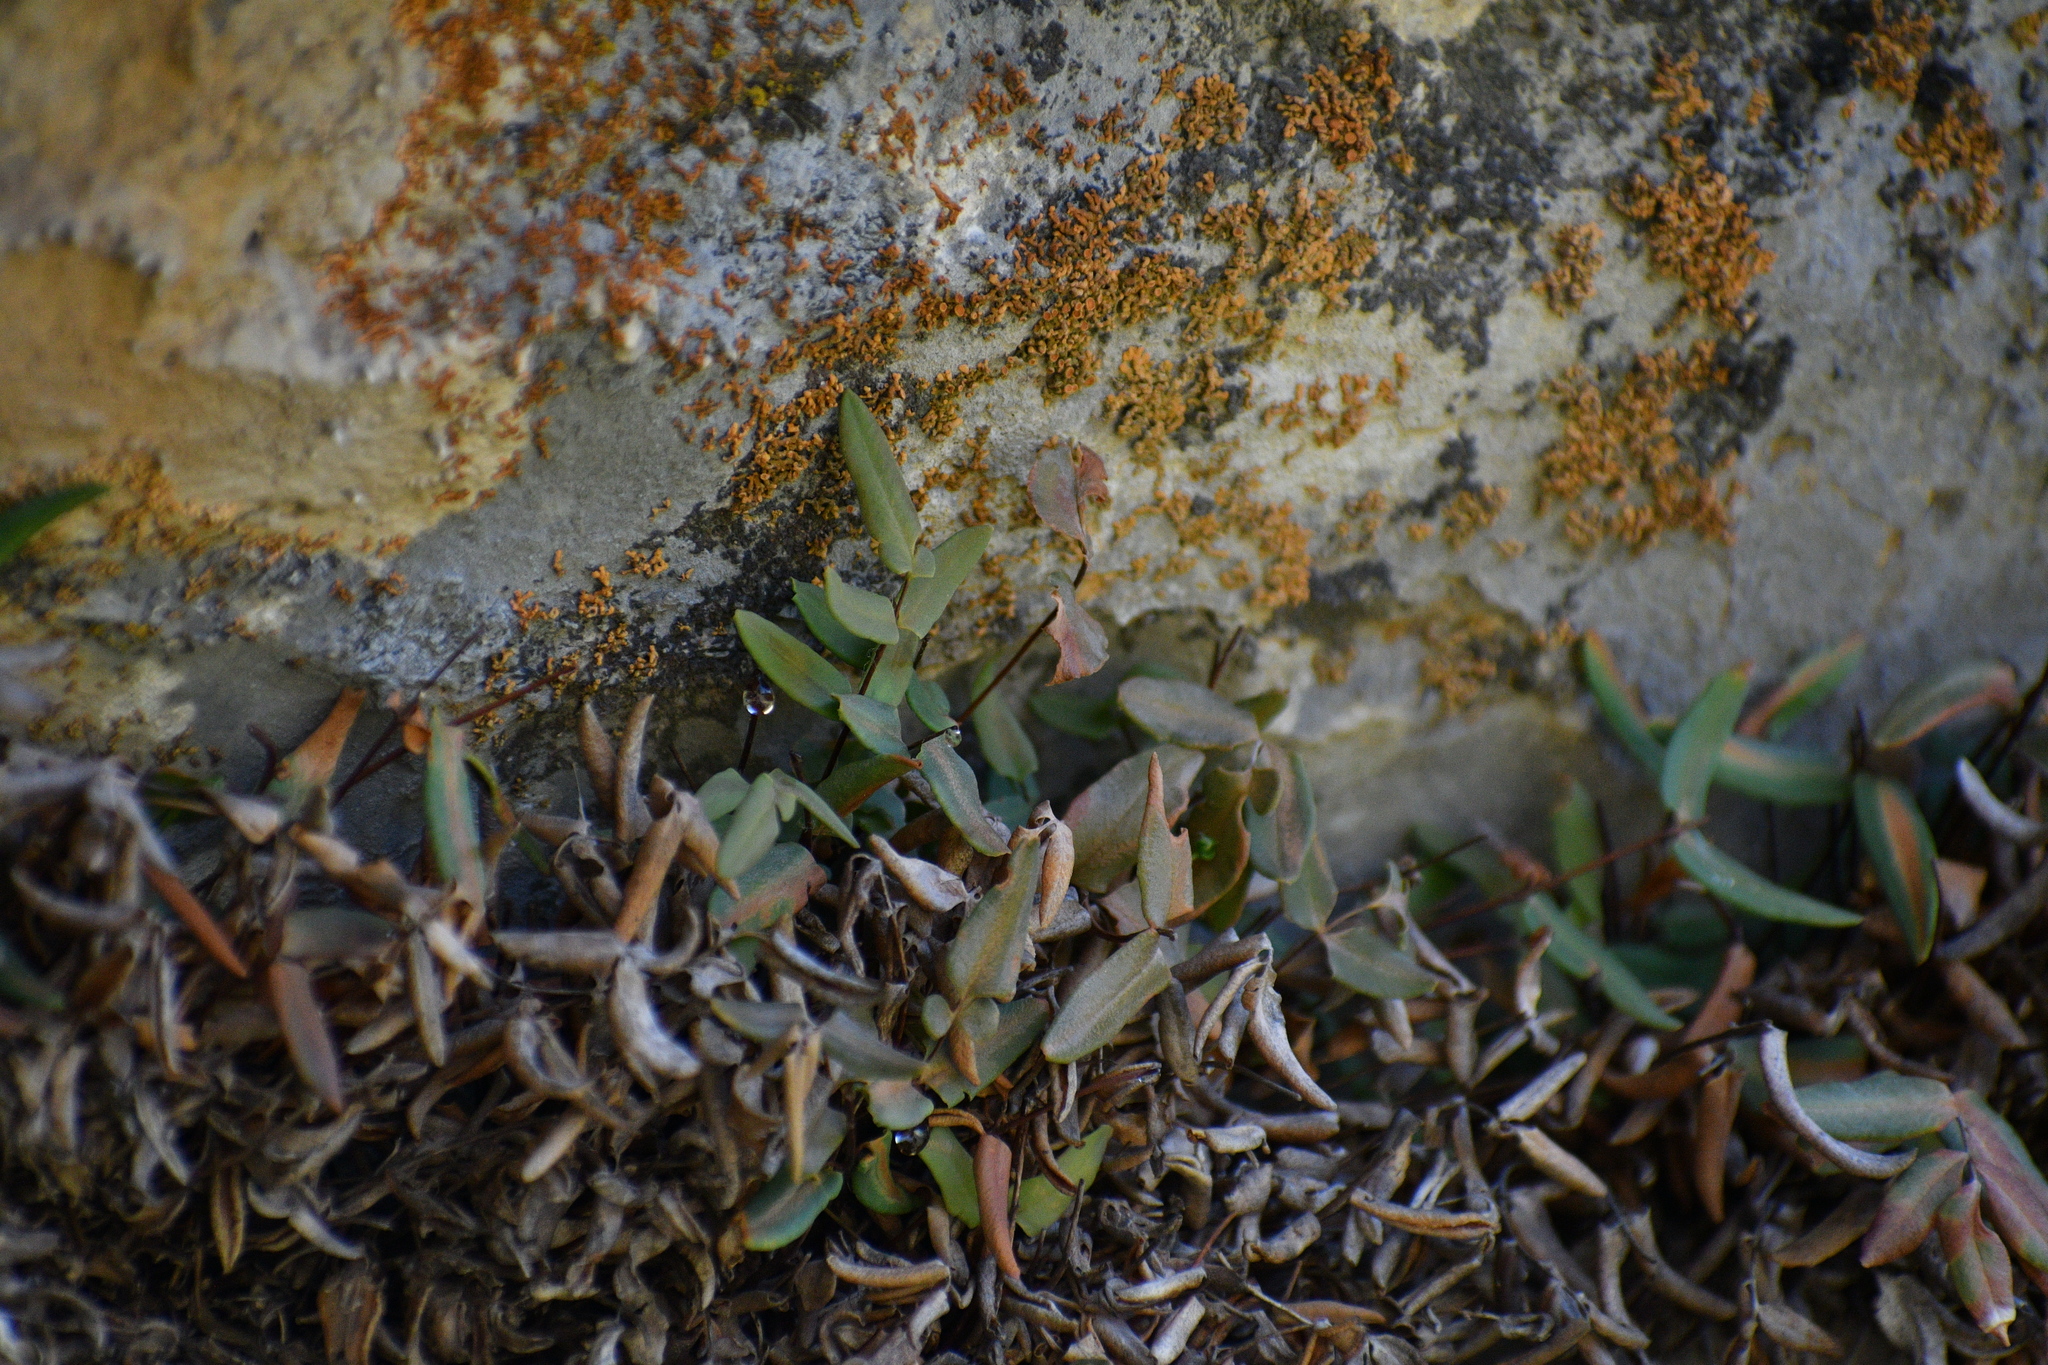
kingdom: Plantae
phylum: Tracheophyta
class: Polypodiopsida
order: Polypodiales
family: Pteridaceae
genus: Pellaea
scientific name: Pellaea glabella
